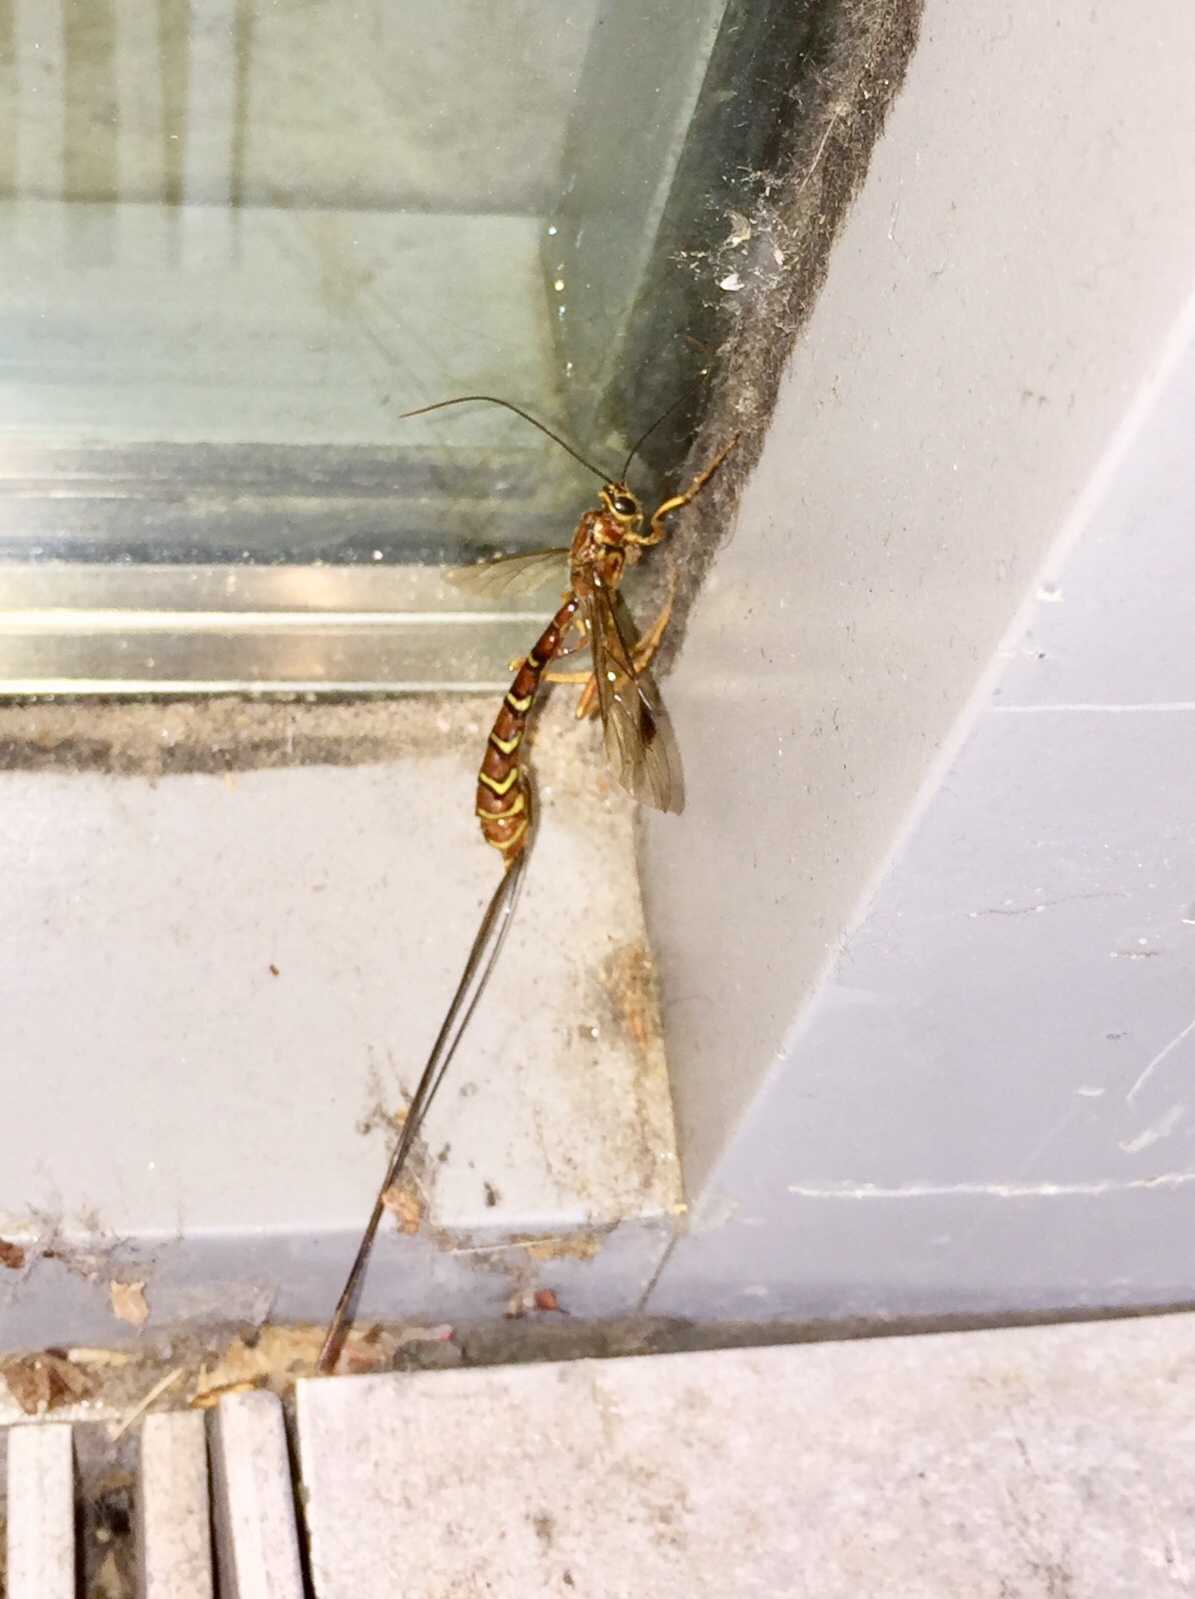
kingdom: Animalia
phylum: Arthropoda
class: Insecta
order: Hymenoptera
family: Ichneumonidae
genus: Megarhyssa
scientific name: Megarhyssa greenei
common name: Greene's giant ichneumonid wasp
